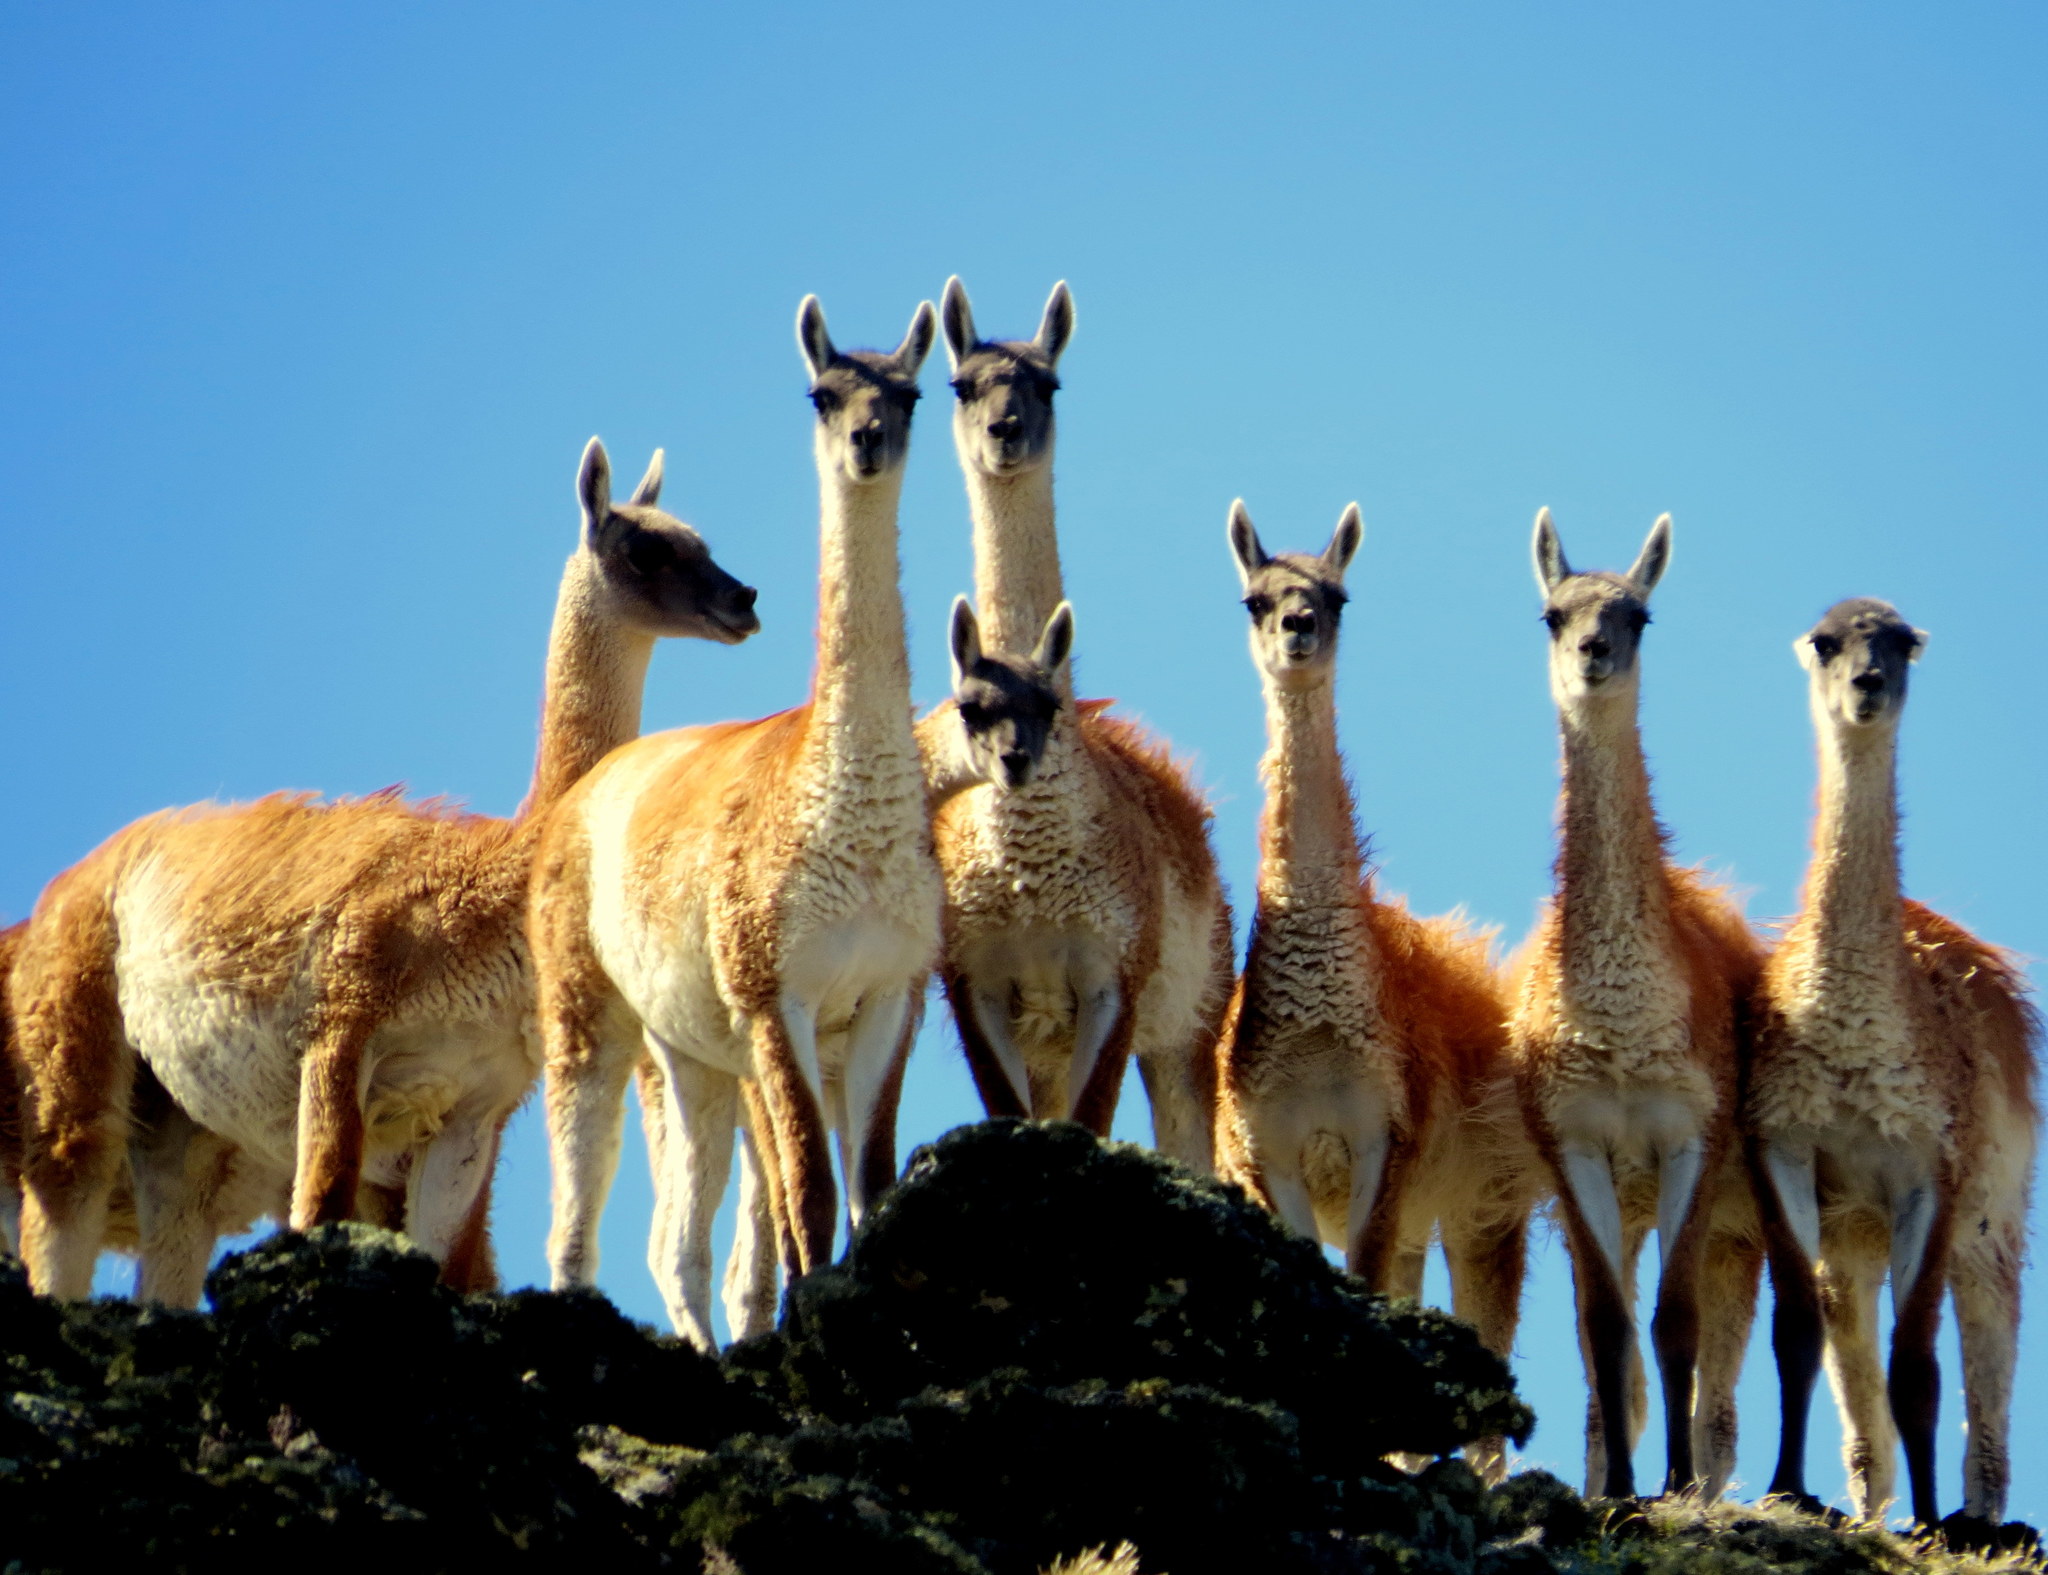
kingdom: Animalia
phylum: Chordata
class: Mammalia
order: Artiodactyla
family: Camelidae
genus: Lama
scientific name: Lama glama
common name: Llama
